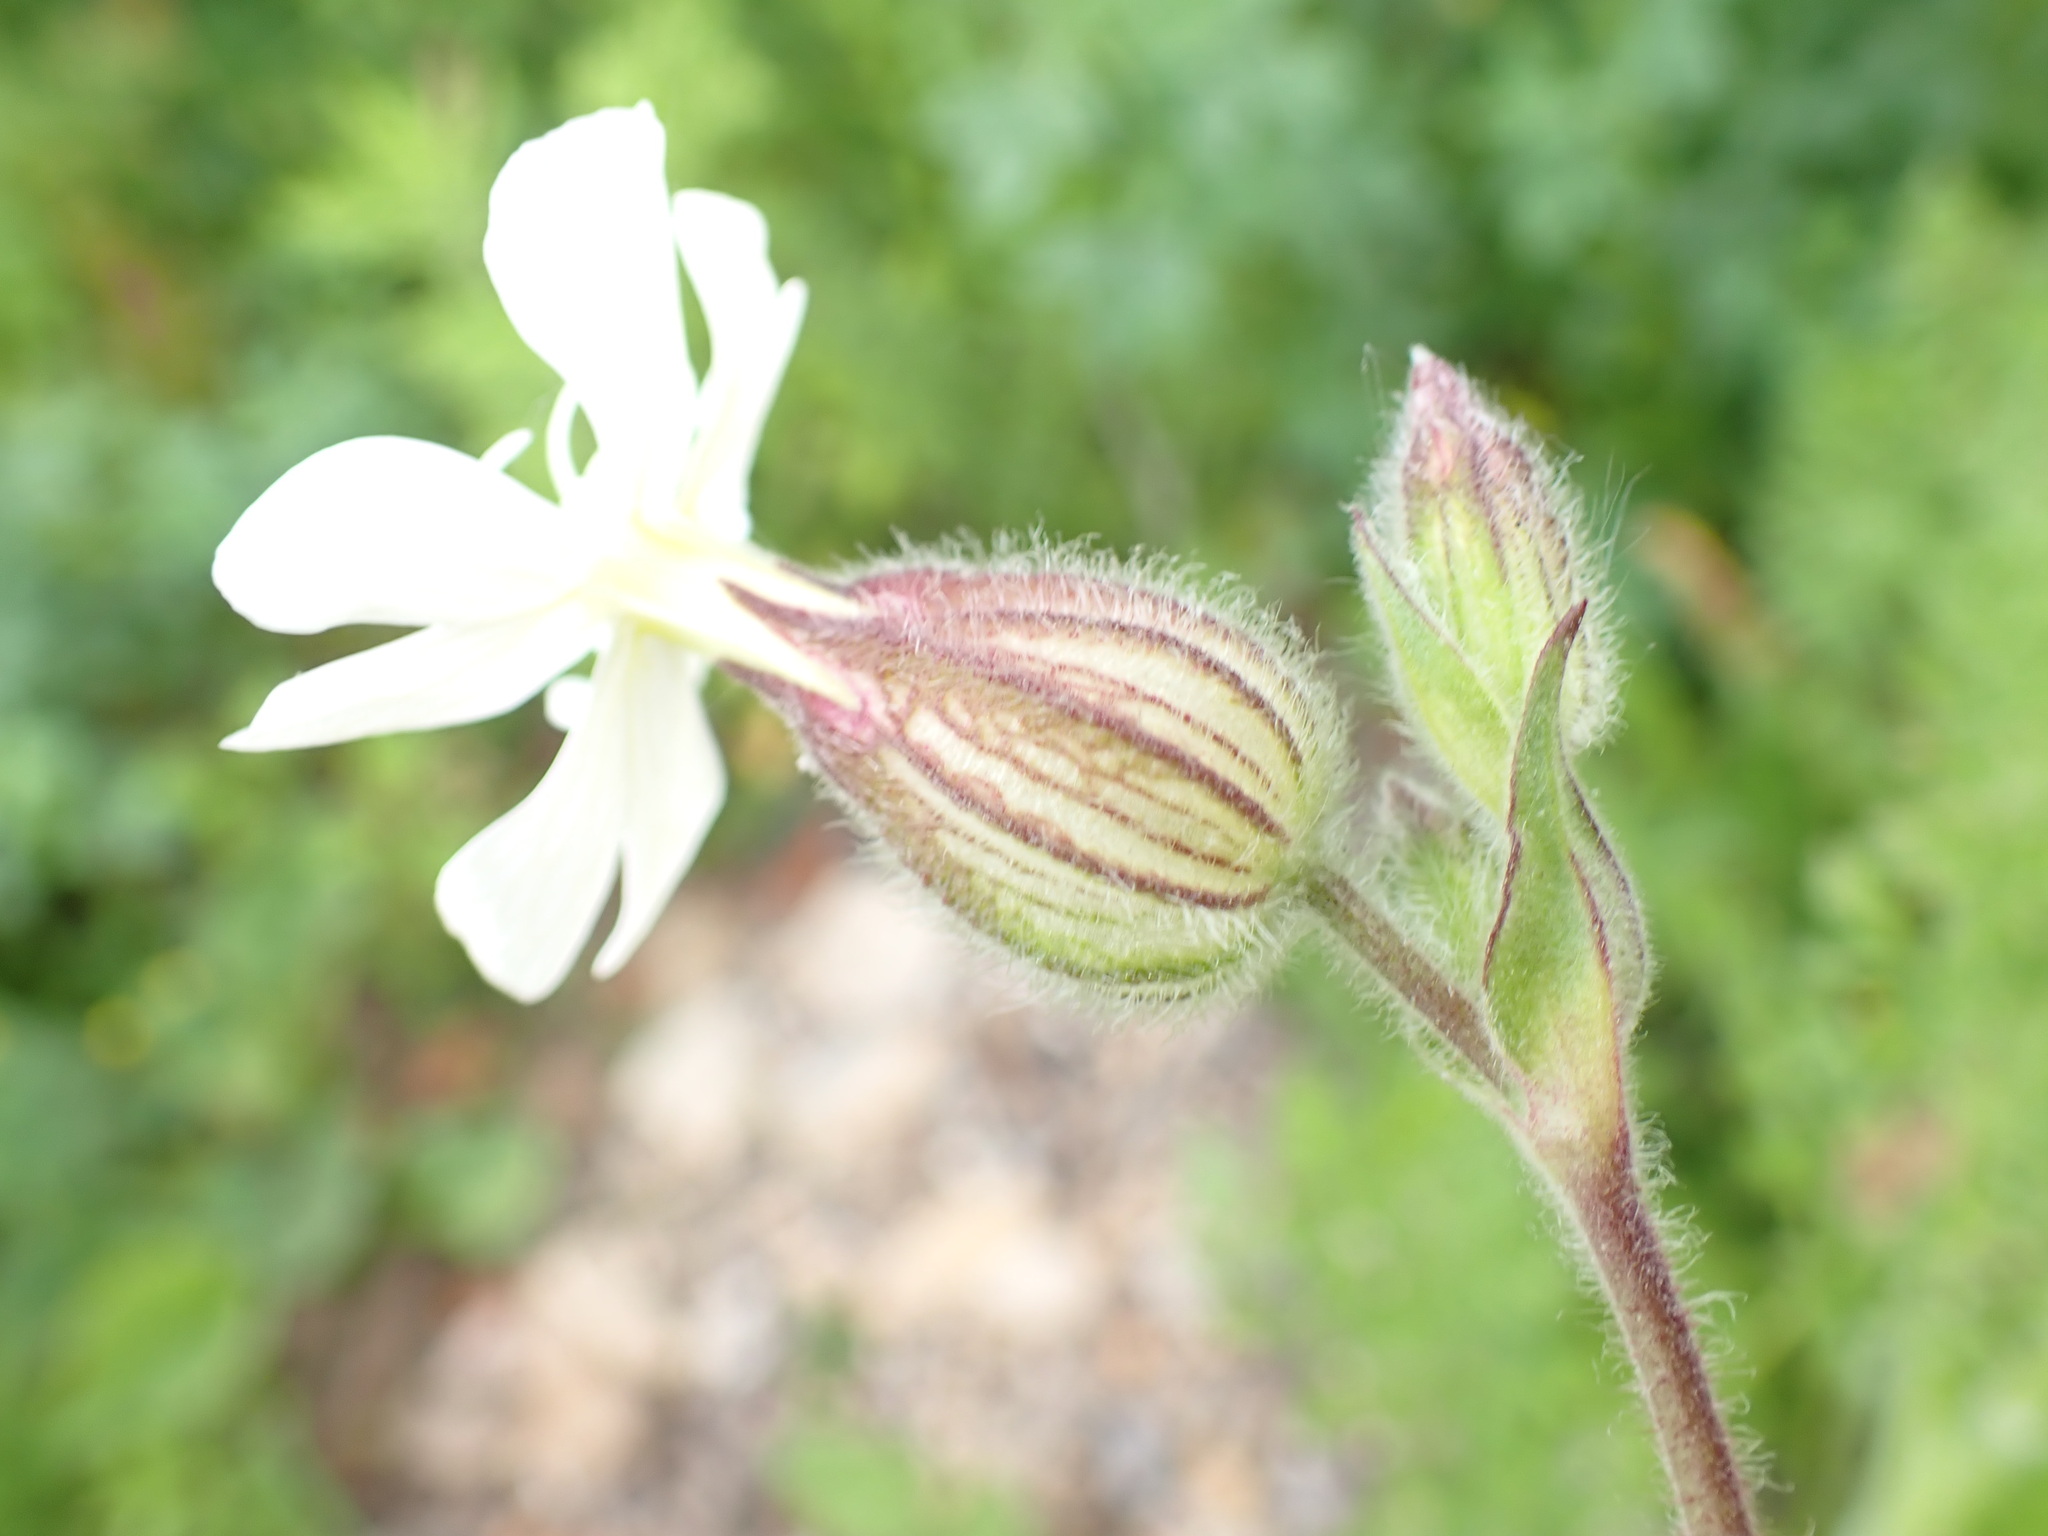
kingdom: Plantae
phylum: Tracheophyta
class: Magnoliopsida
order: Caryophyllales
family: Caryophyllaceae
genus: Silene
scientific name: Silene latifolia
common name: White campion
